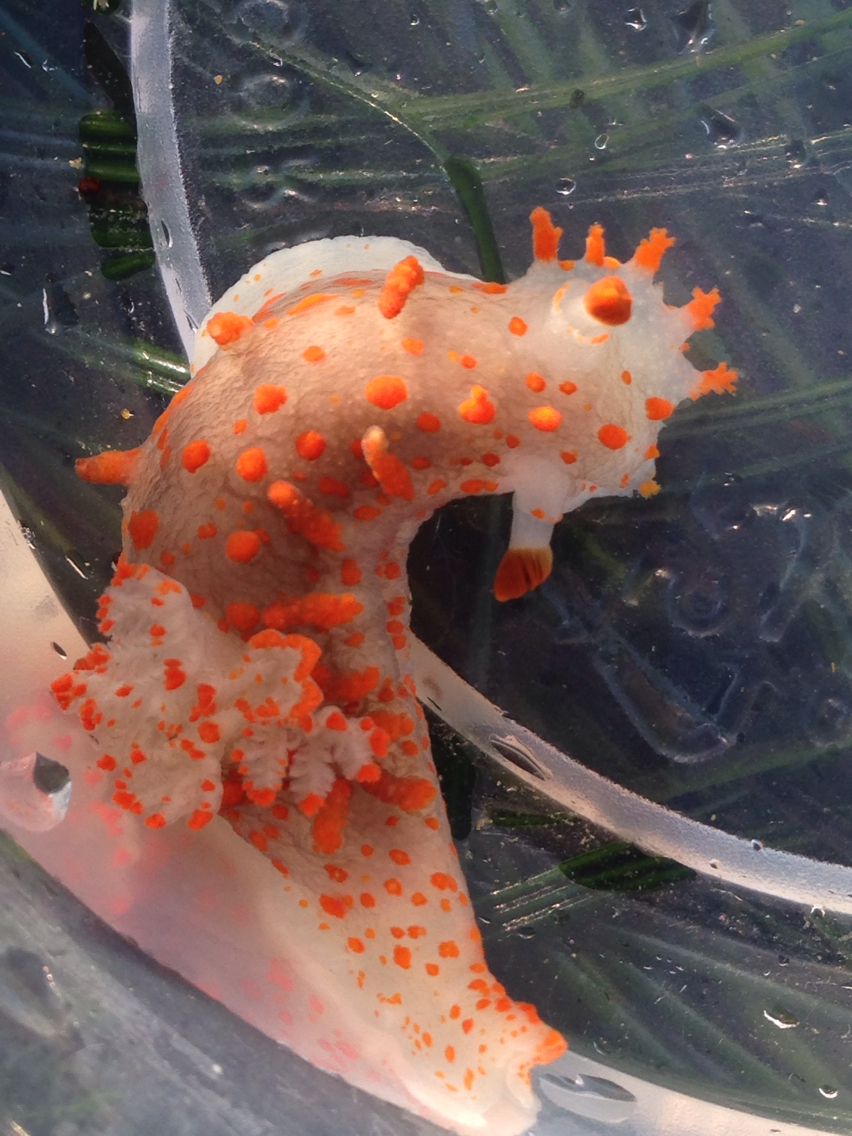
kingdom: Animalia
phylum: Mollusca
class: Gastropoda
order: Nudibranchia
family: Polyceridae
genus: Triopha
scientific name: Triopha catalinae
